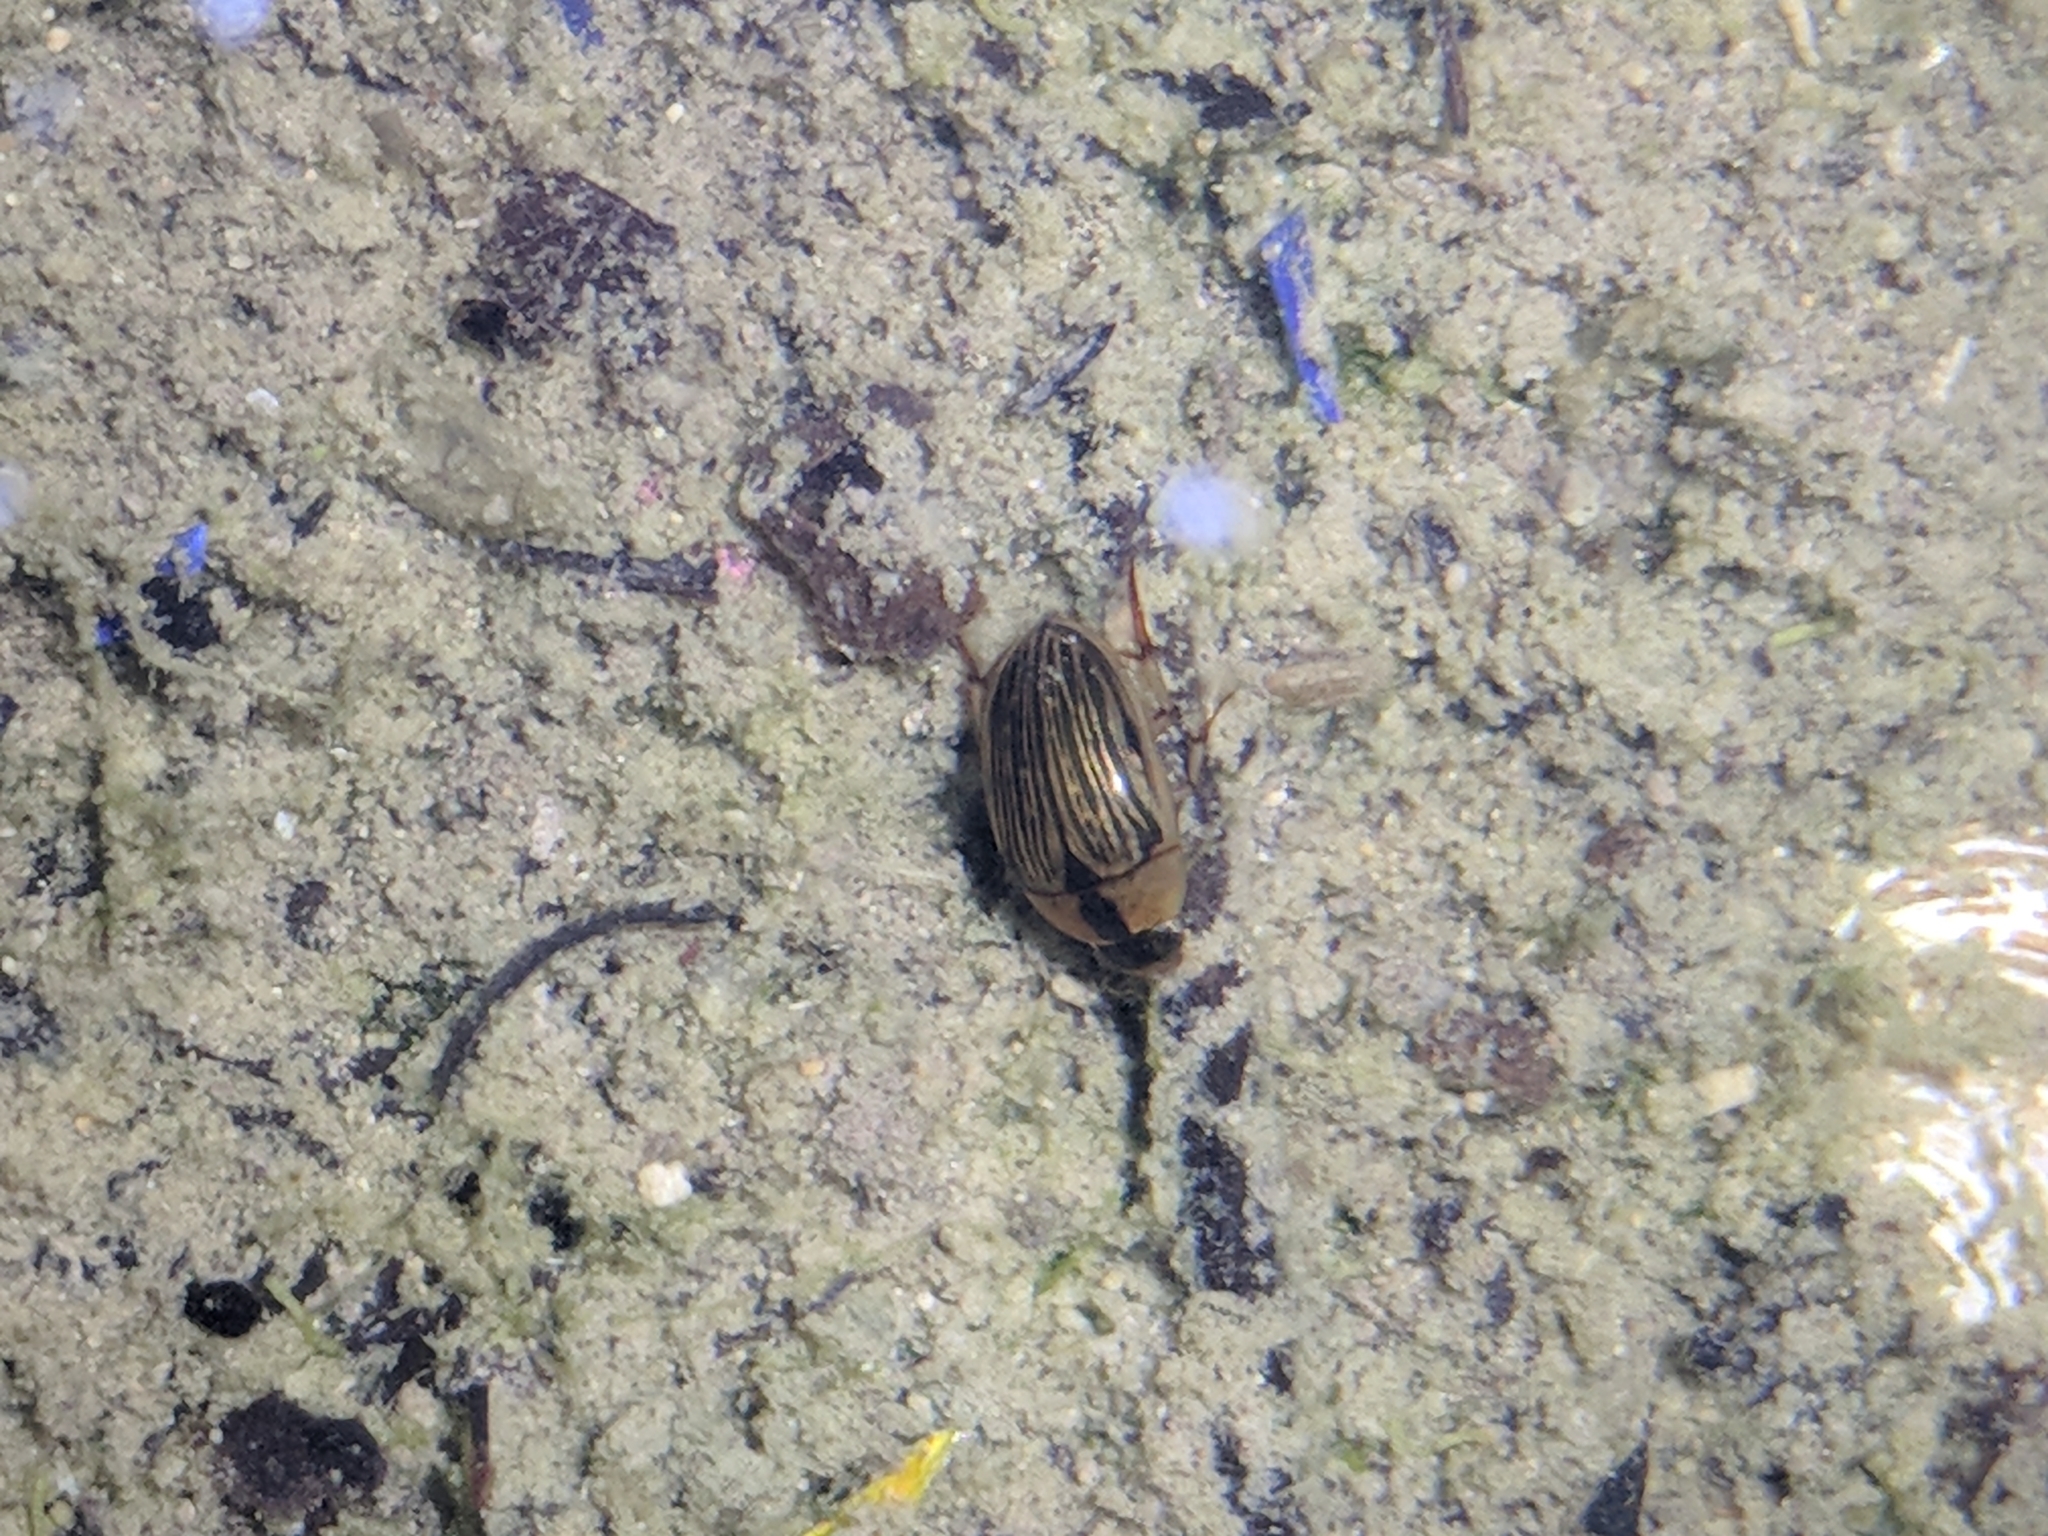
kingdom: Animalia
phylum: Arthropoda
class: Insecta
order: Coleoptera
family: Hydrophilidae
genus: Tropisternus
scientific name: Tropisternus collaris
